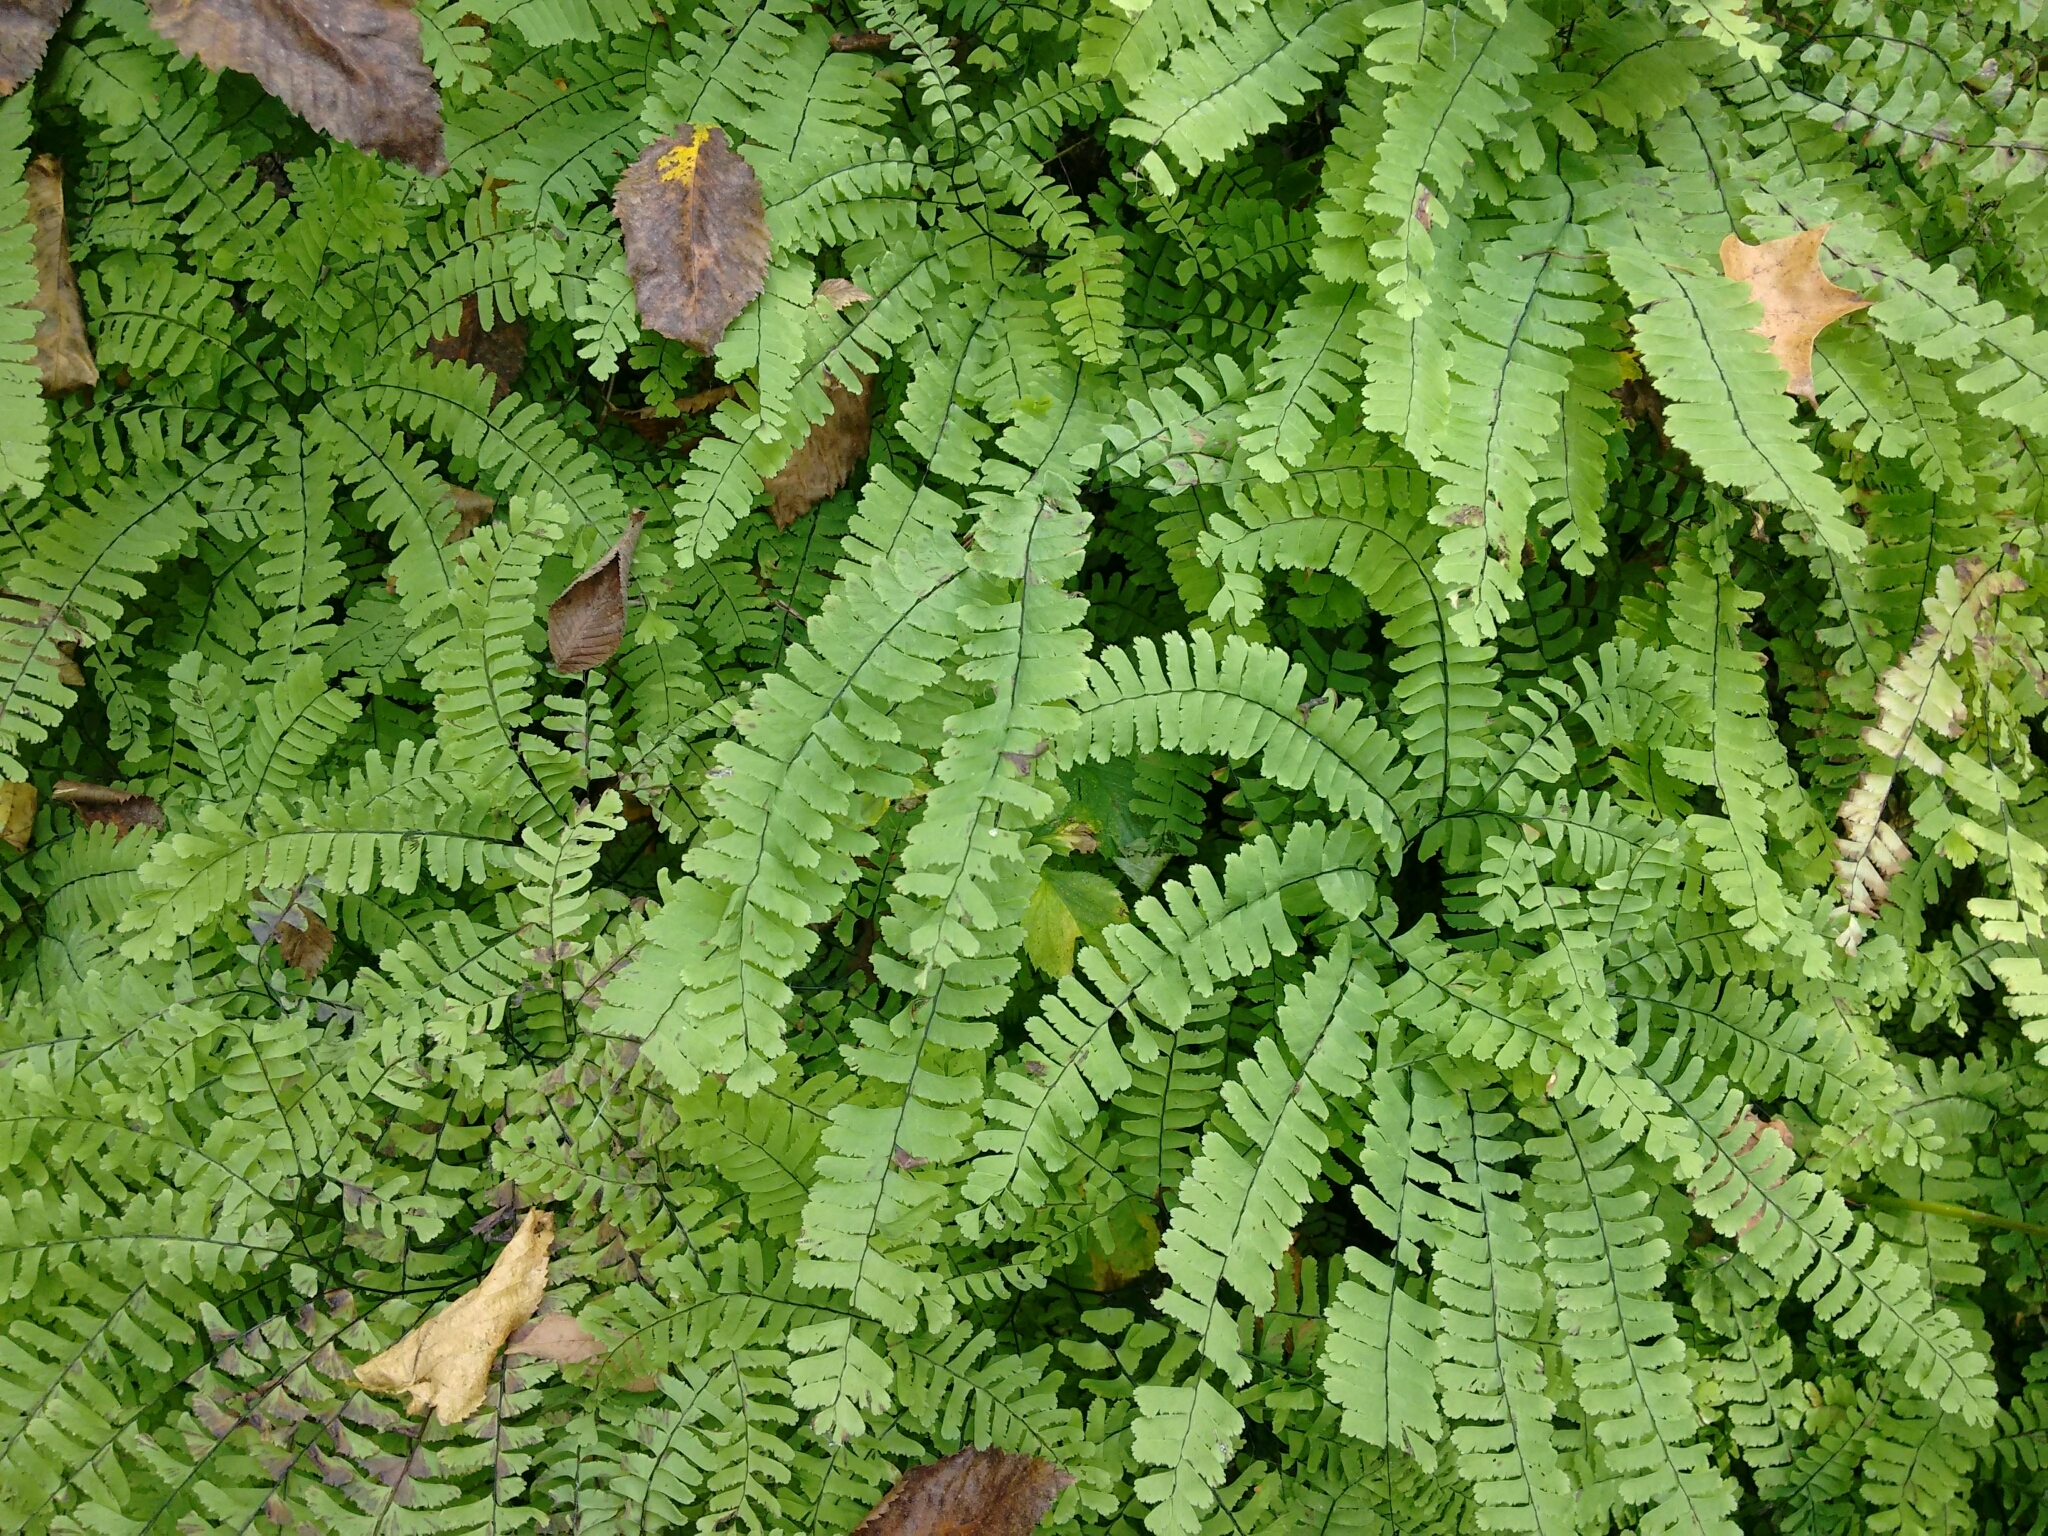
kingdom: Plantae
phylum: Tracheophyta
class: Polypodiopsida
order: Polypodiales
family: Pteridaceae
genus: Adiantum
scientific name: Adiantum pedatum
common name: Five-finger fern
